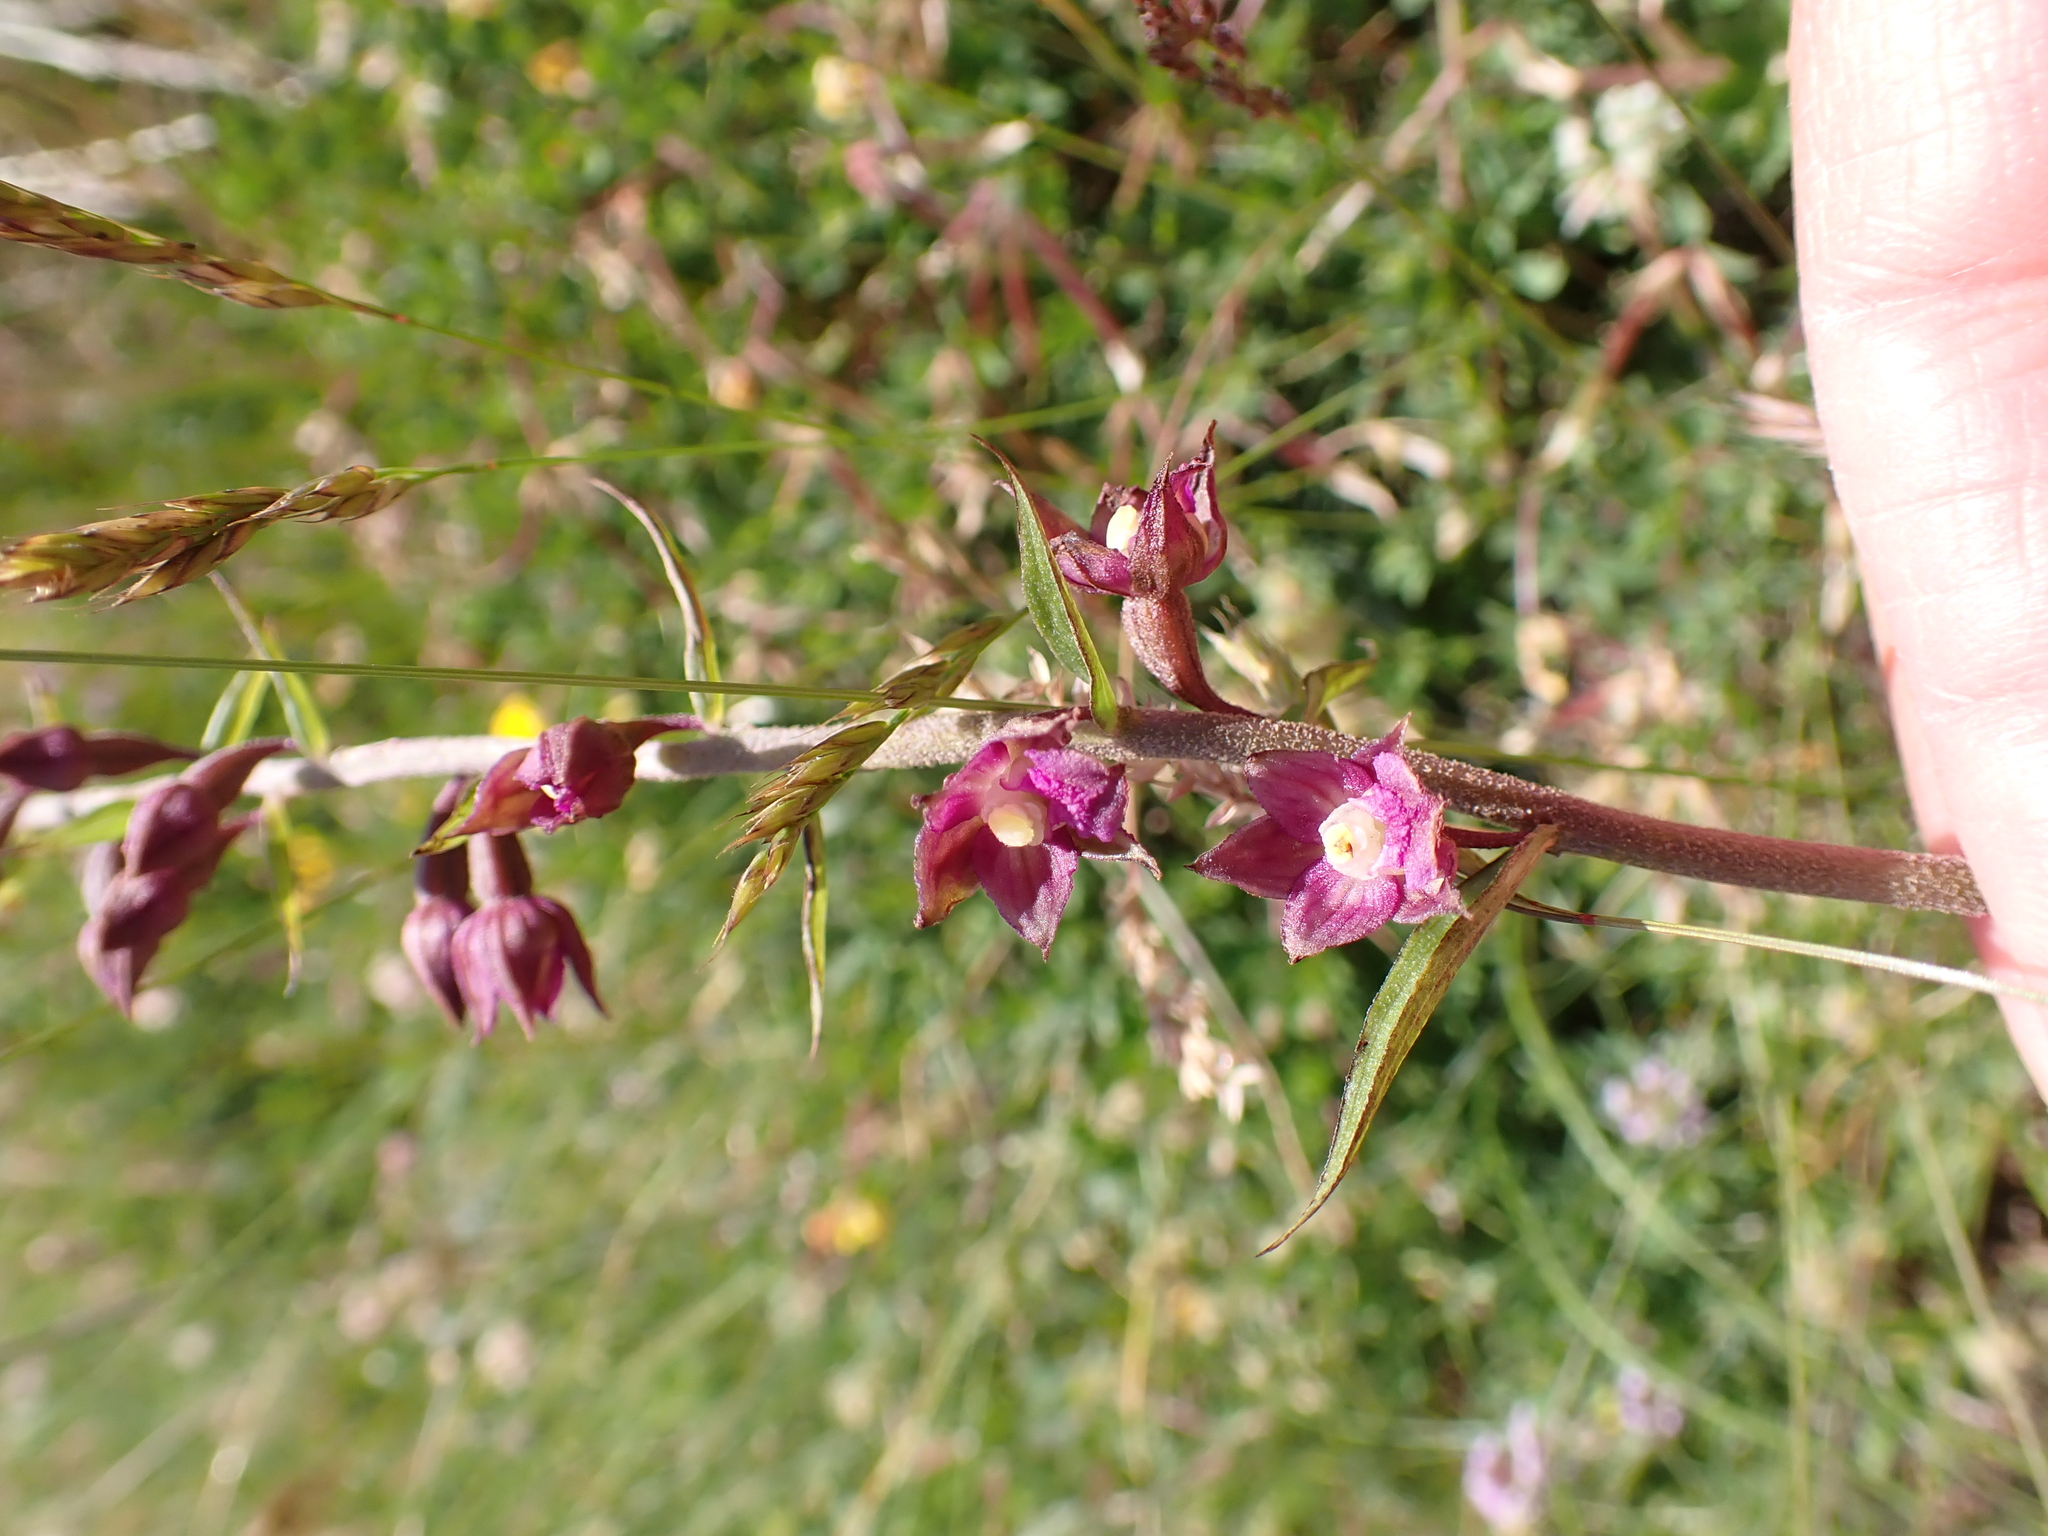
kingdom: Plantae
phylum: Tracheophyta
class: Liliopsida
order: Asparagales
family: Orchidaceae
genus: Epipactis
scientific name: Epipactis atrorubens
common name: Dark-red helleborine
